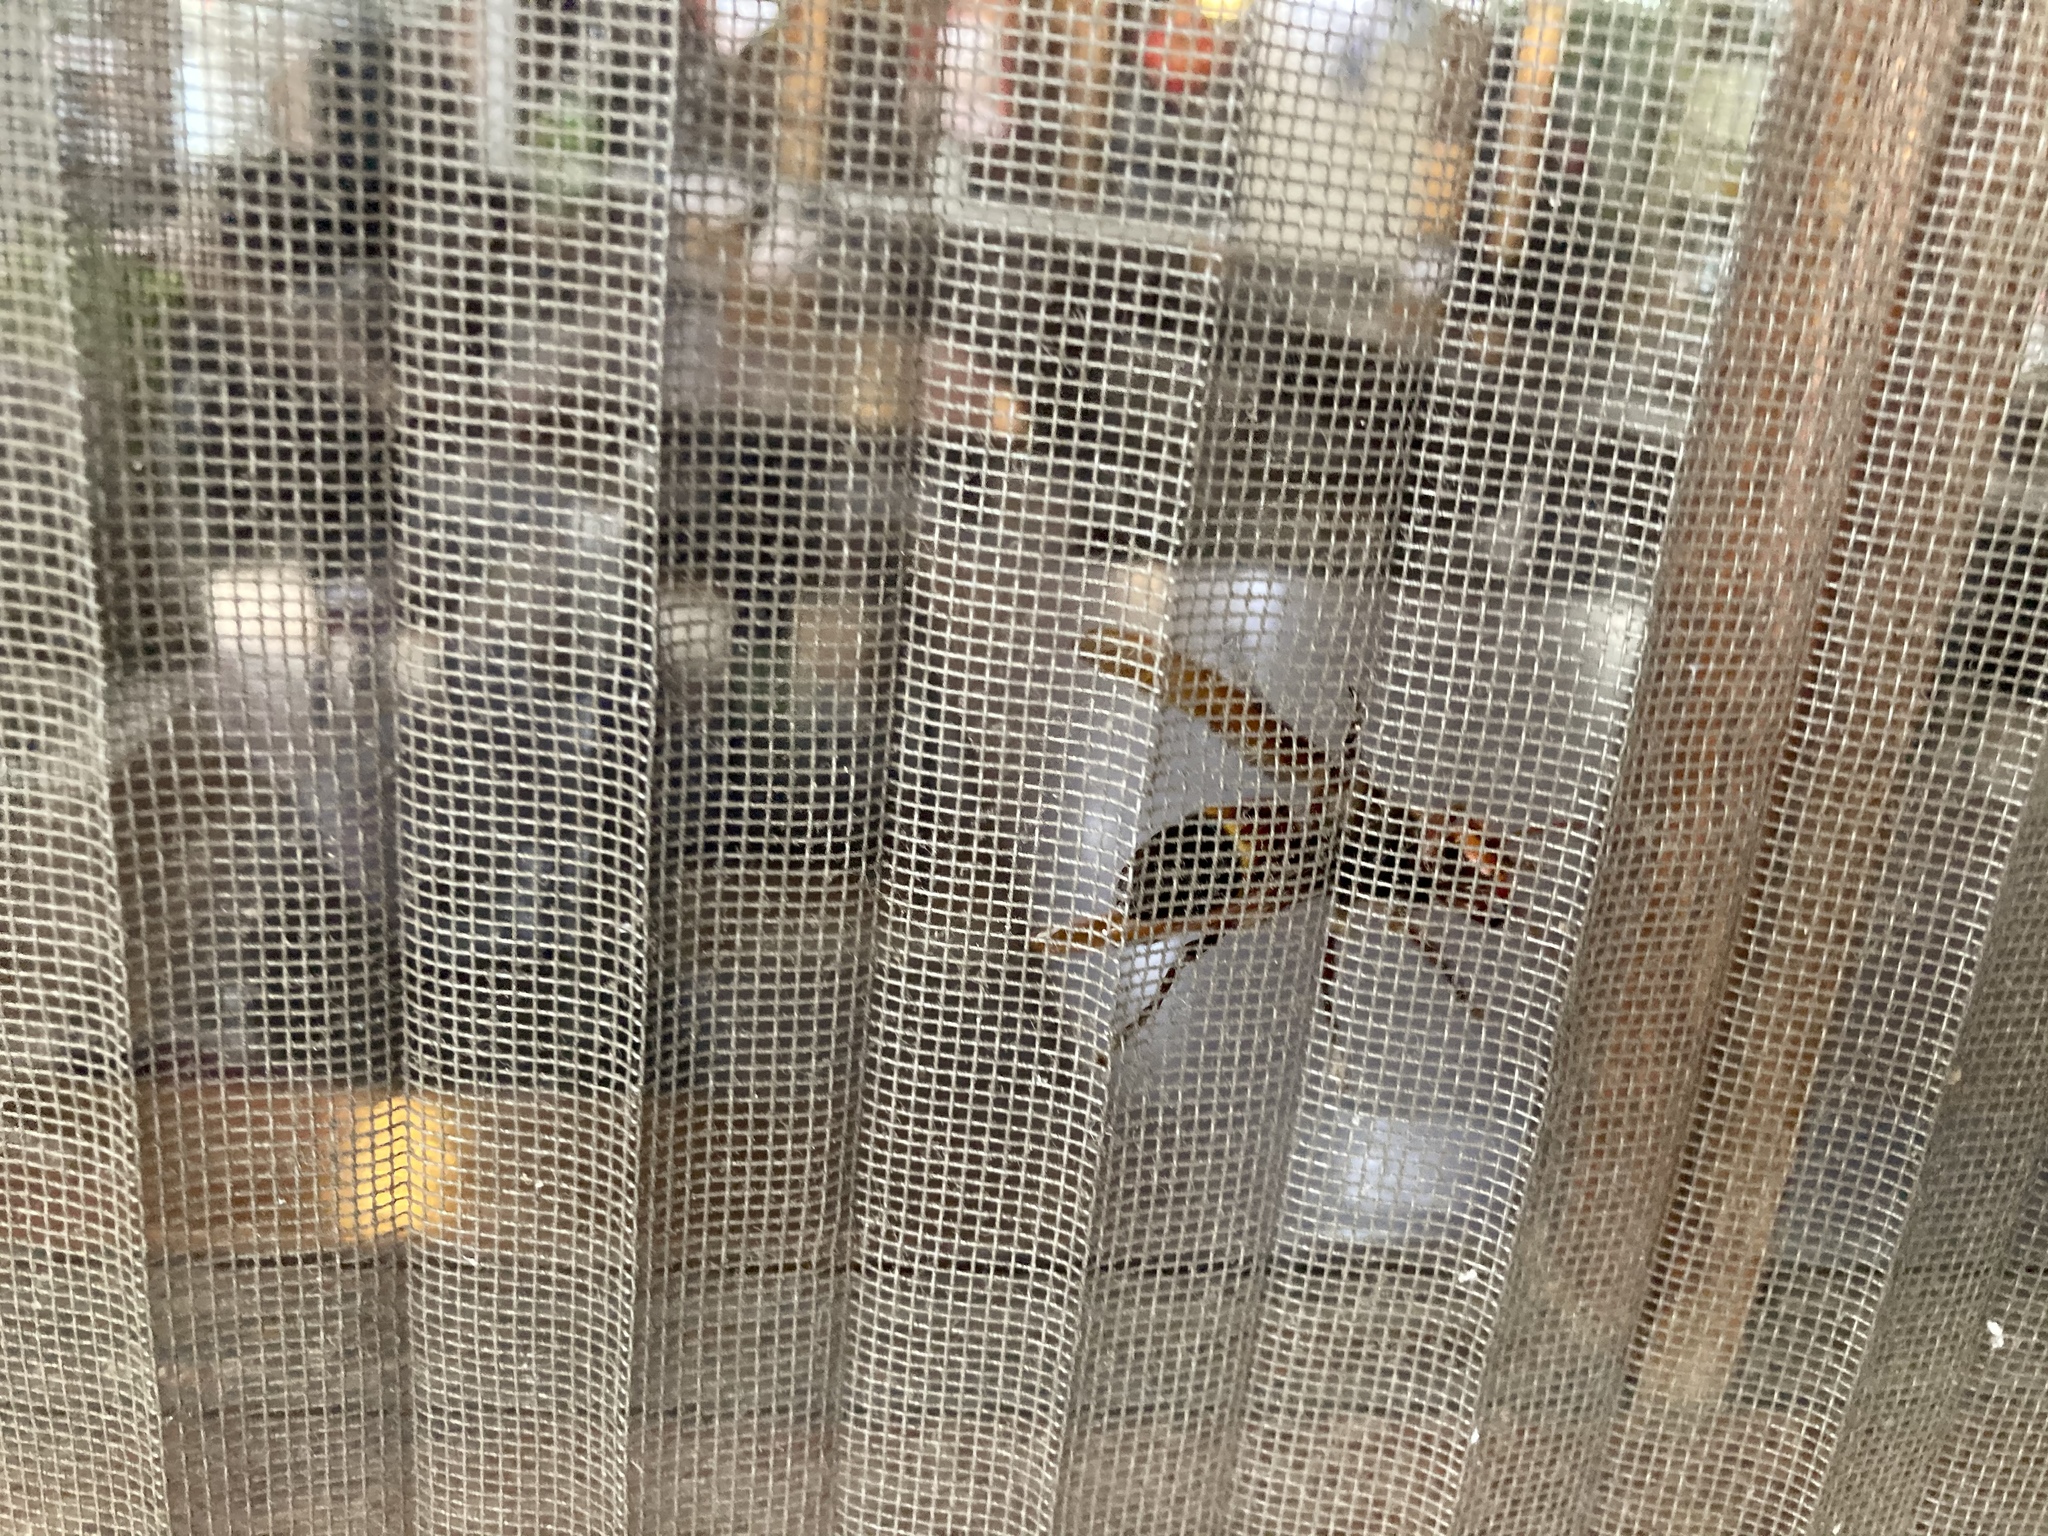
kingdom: Animalia
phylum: Arthropoda
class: Insecta
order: Hymenoptera
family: Vespidae
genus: Vespa
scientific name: Vespa ducalis
